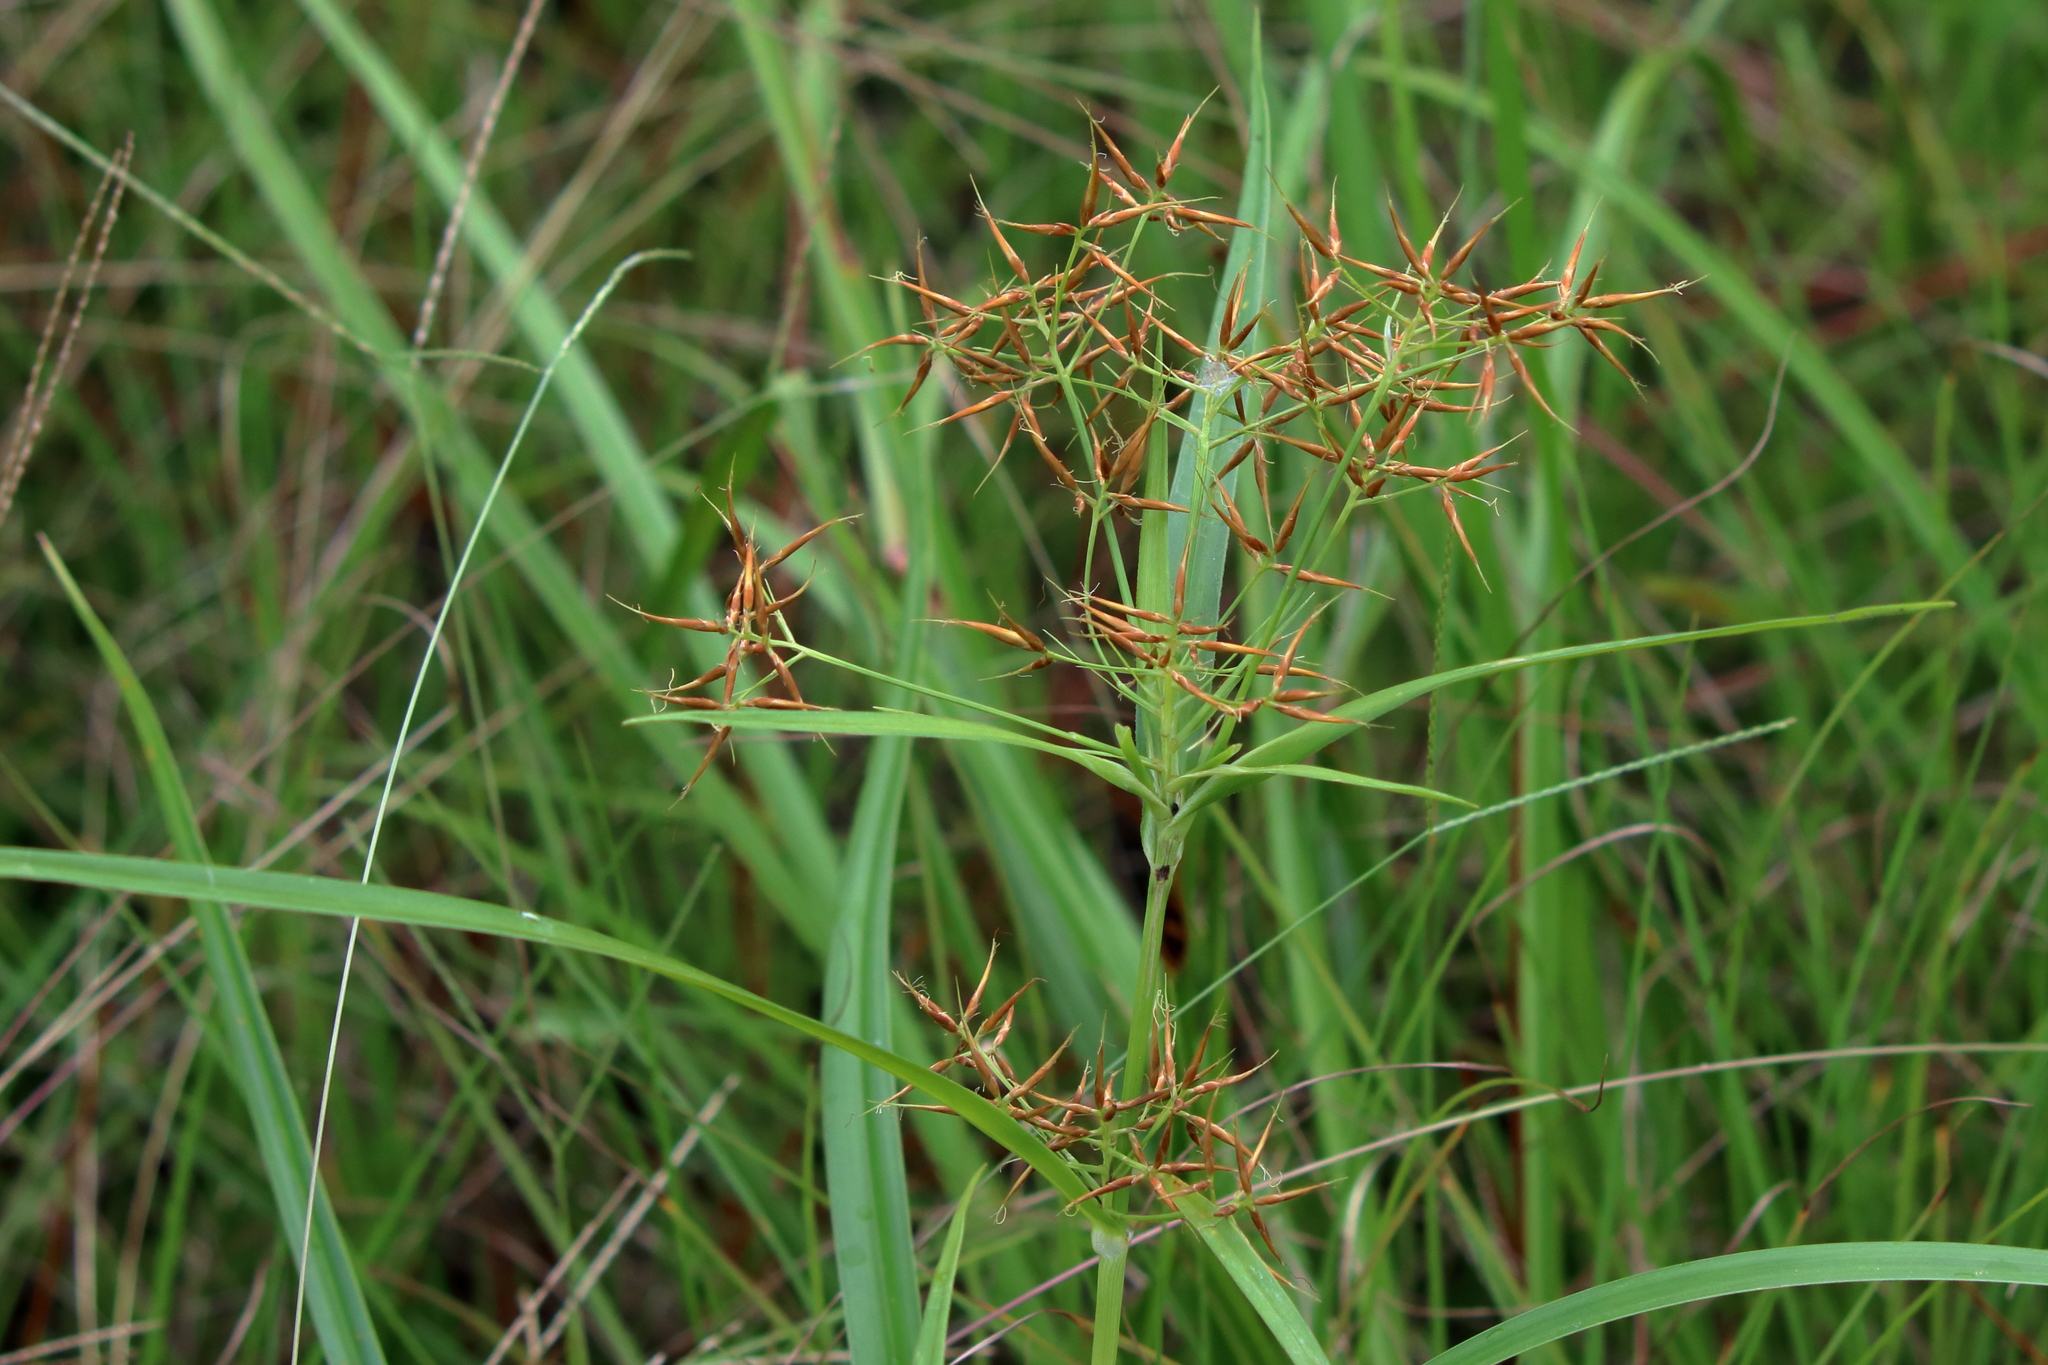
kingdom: Plantae
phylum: Tracheophyta
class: Liliopsida
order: Poales
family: Cyperaceae
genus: Rhynchospora
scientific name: Rhynchospora corniculata
